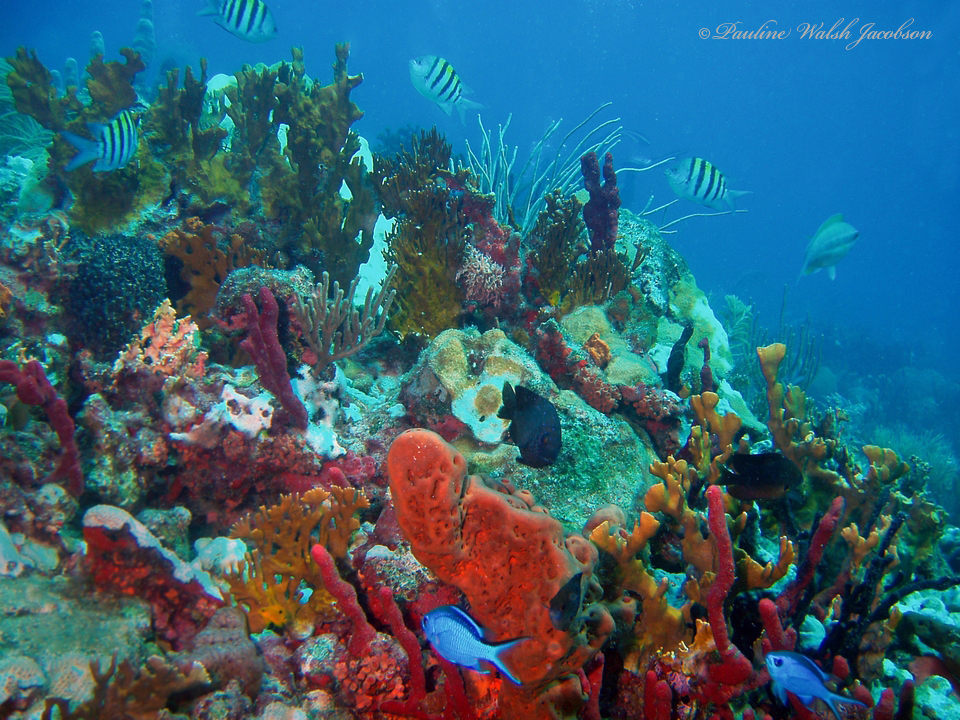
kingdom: Animalia
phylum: Chordata
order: Perciformes
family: Pomacentridae
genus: Chromis
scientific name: Chromis cyanea
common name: Blue chromis
